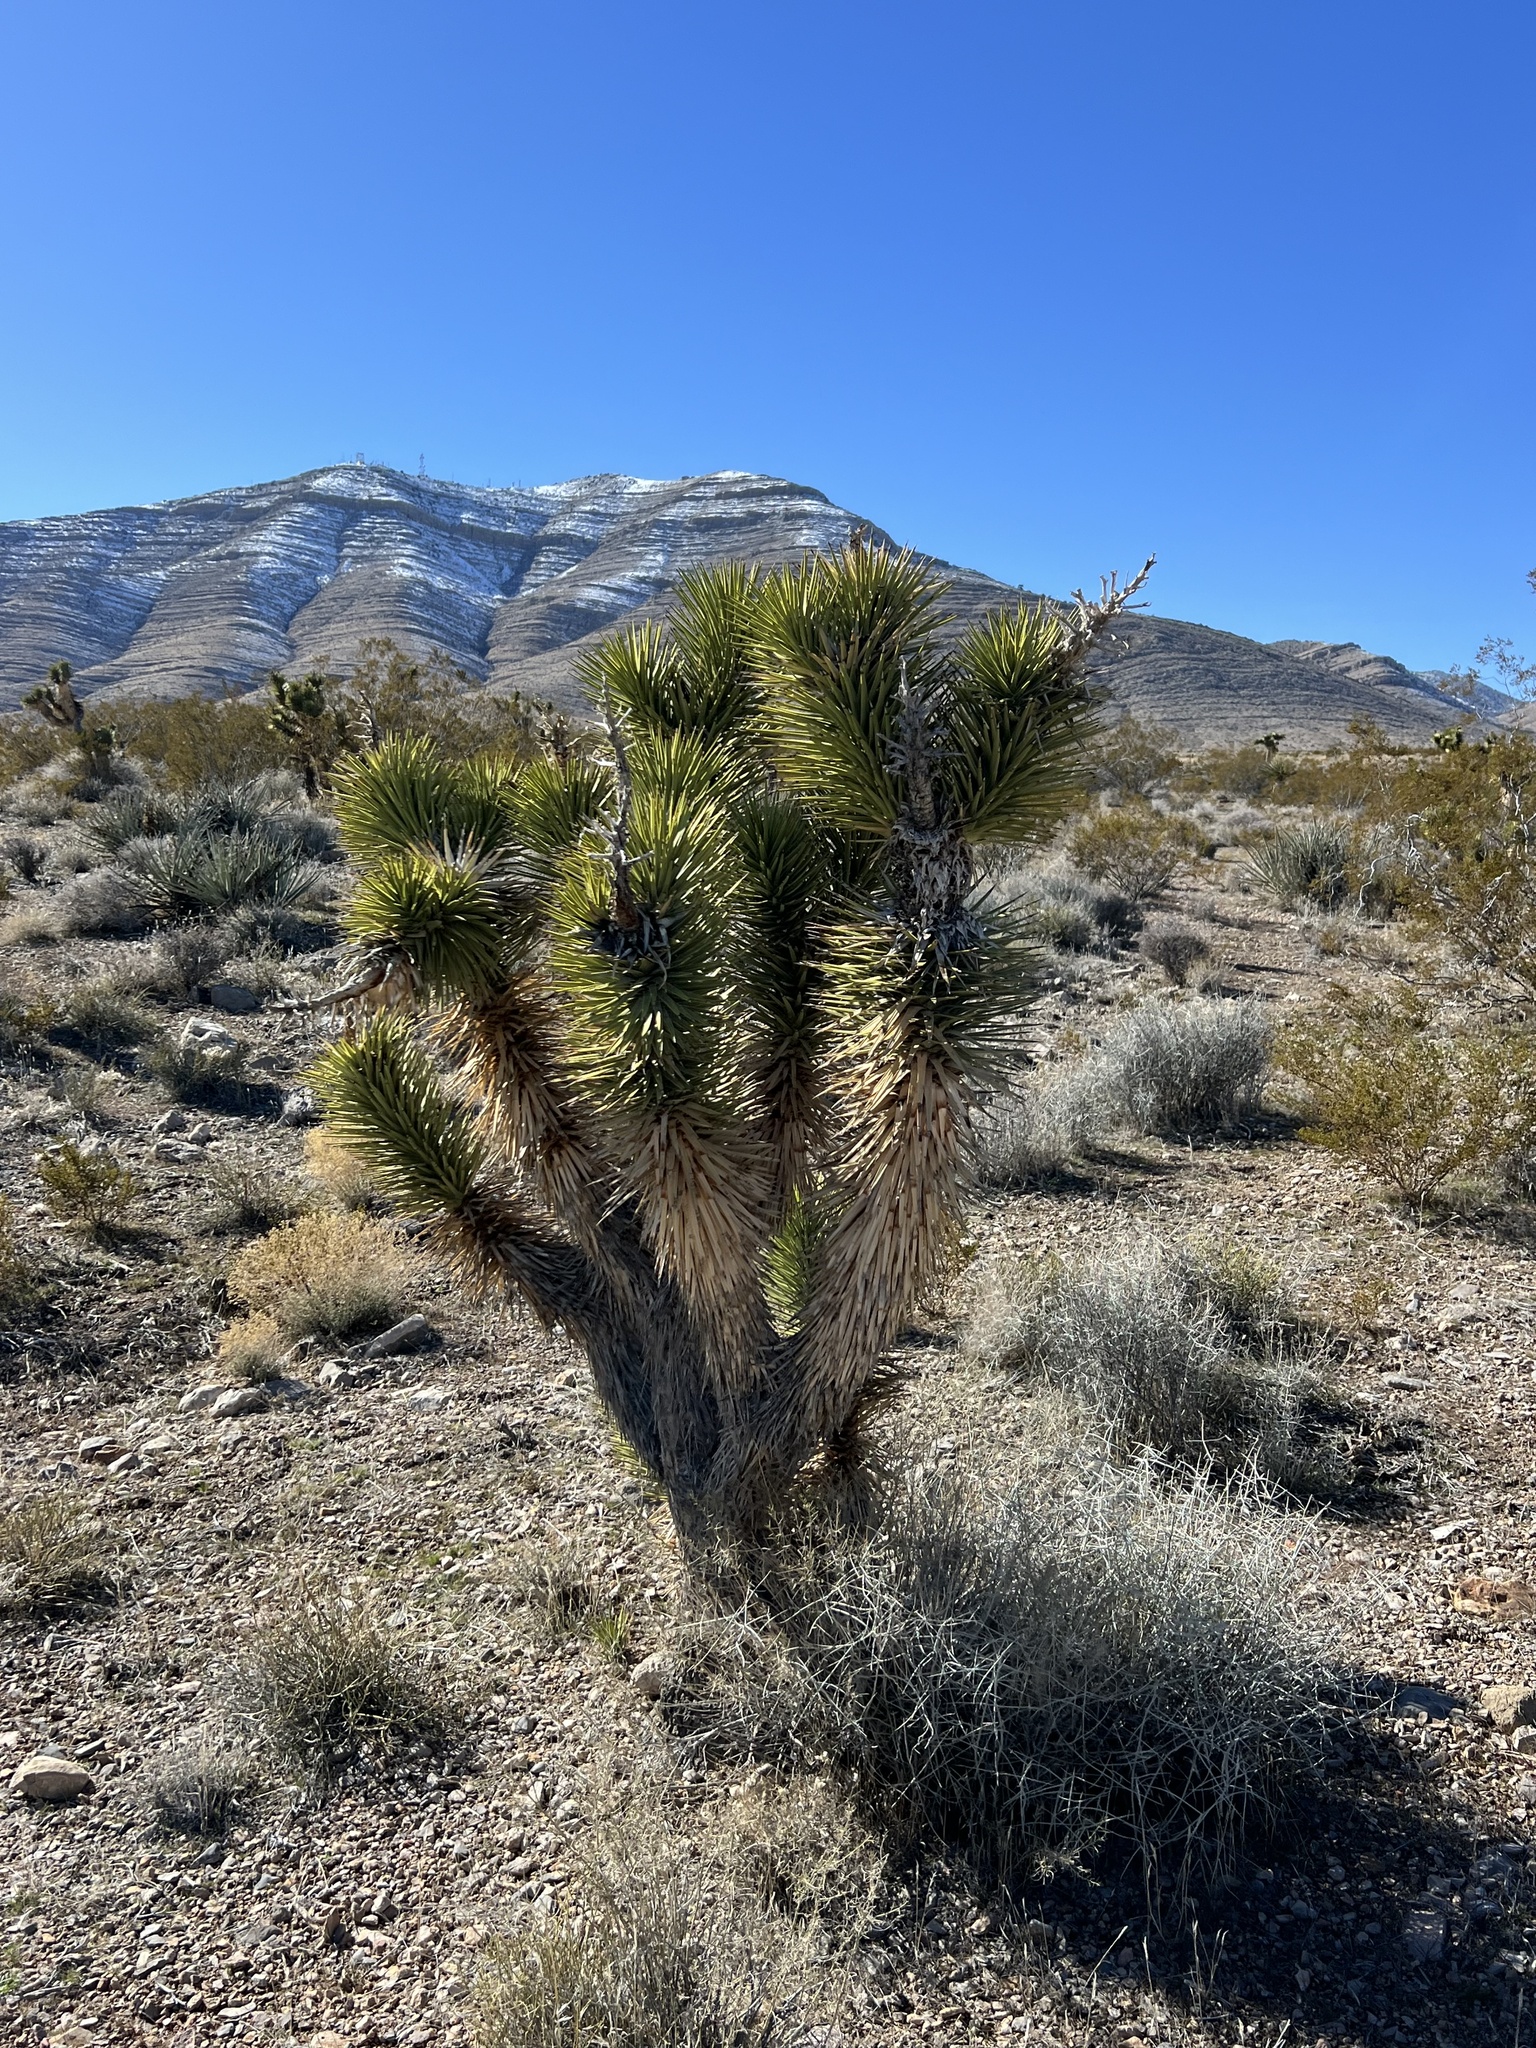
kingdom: Plantae
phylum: Tracheophyta
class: Liliopsida
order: Asparagales
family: Asparagaceae
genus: Yucca
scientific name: Yucca brevifolia
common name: Joshua tree
